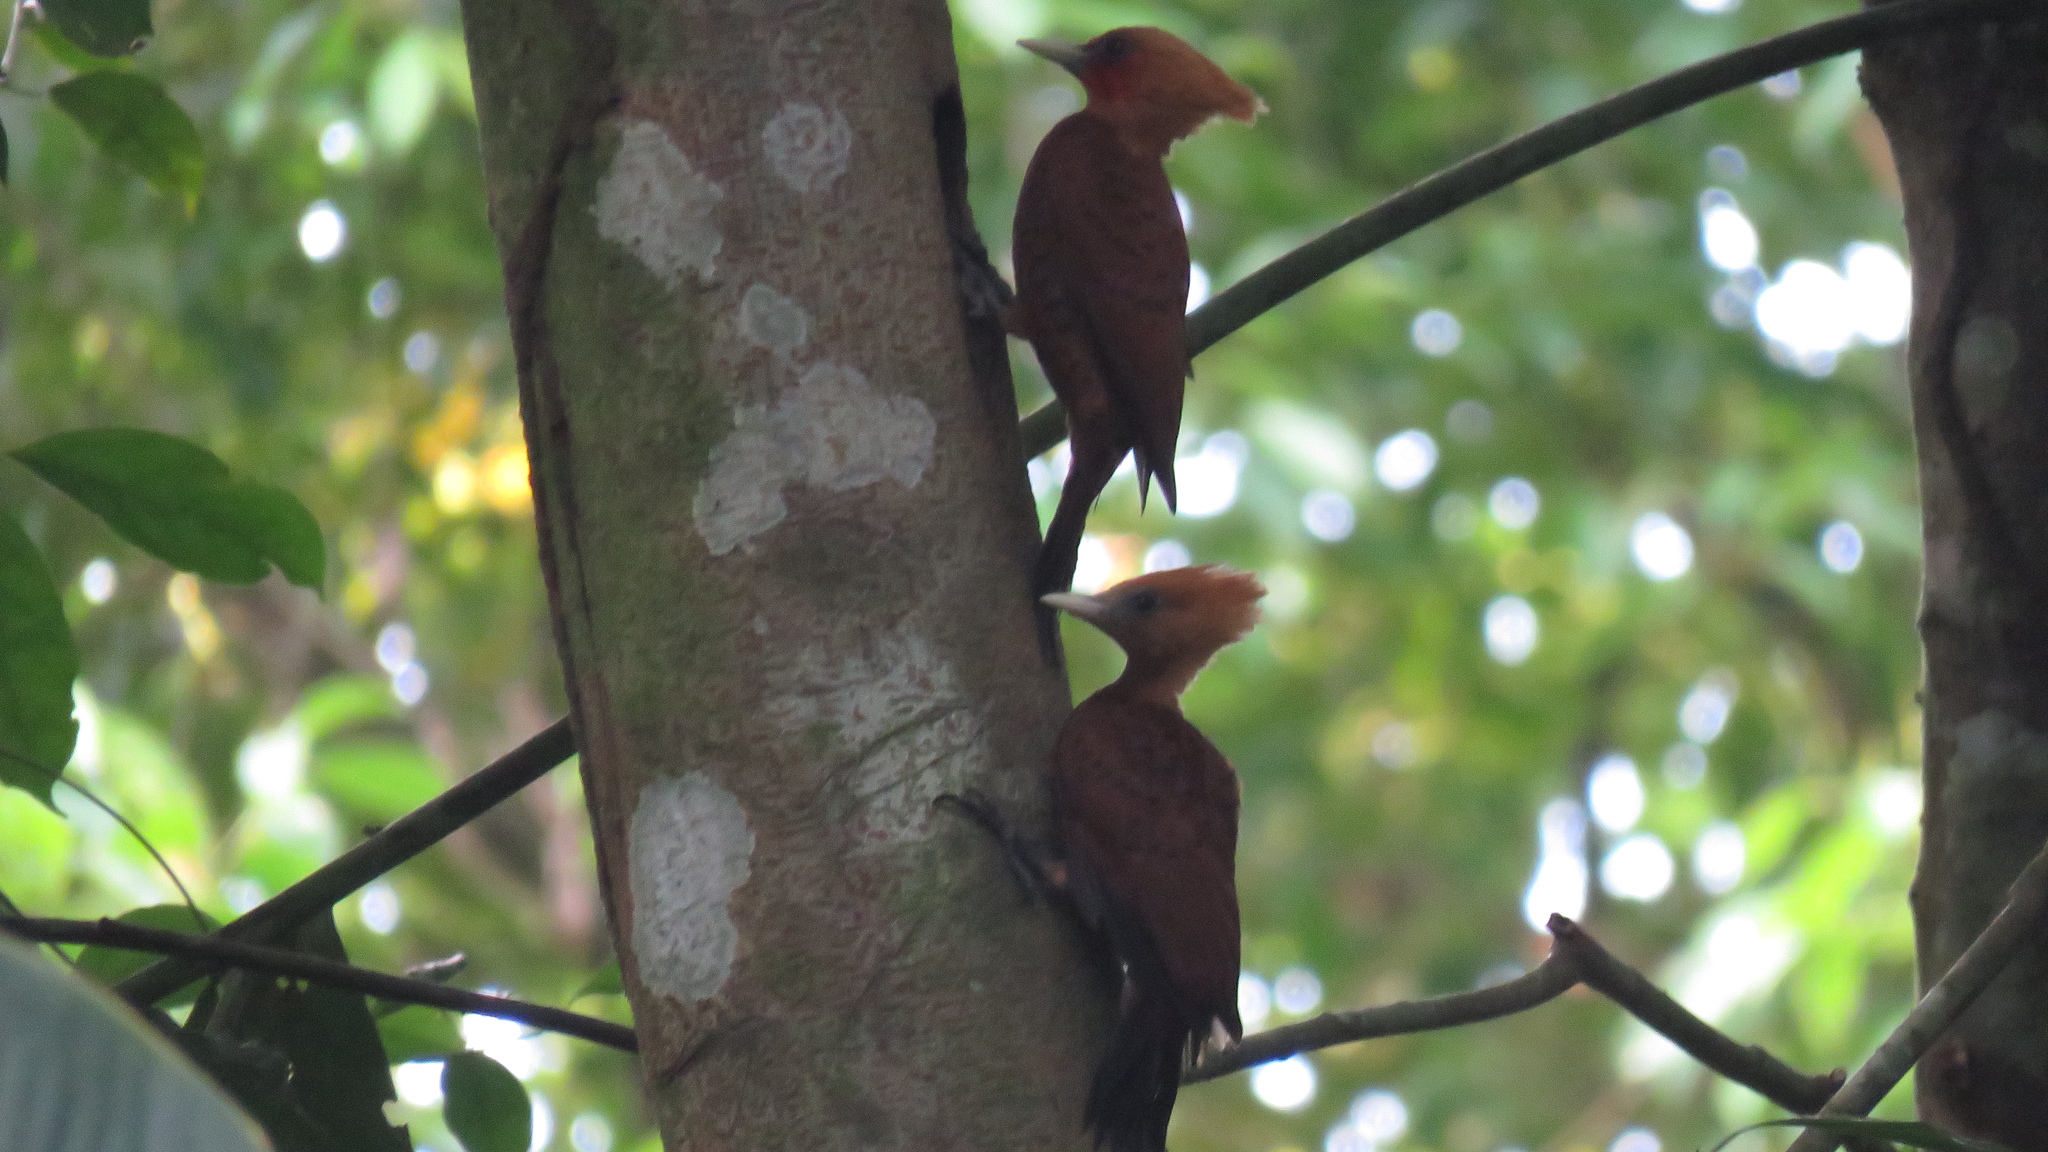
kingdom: Animalia
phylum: Chordata
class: Aves
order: Piciformes
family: Picidae
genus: Celeus
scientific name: Celeus castaneus
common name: Chestnut-colored woodpecker
